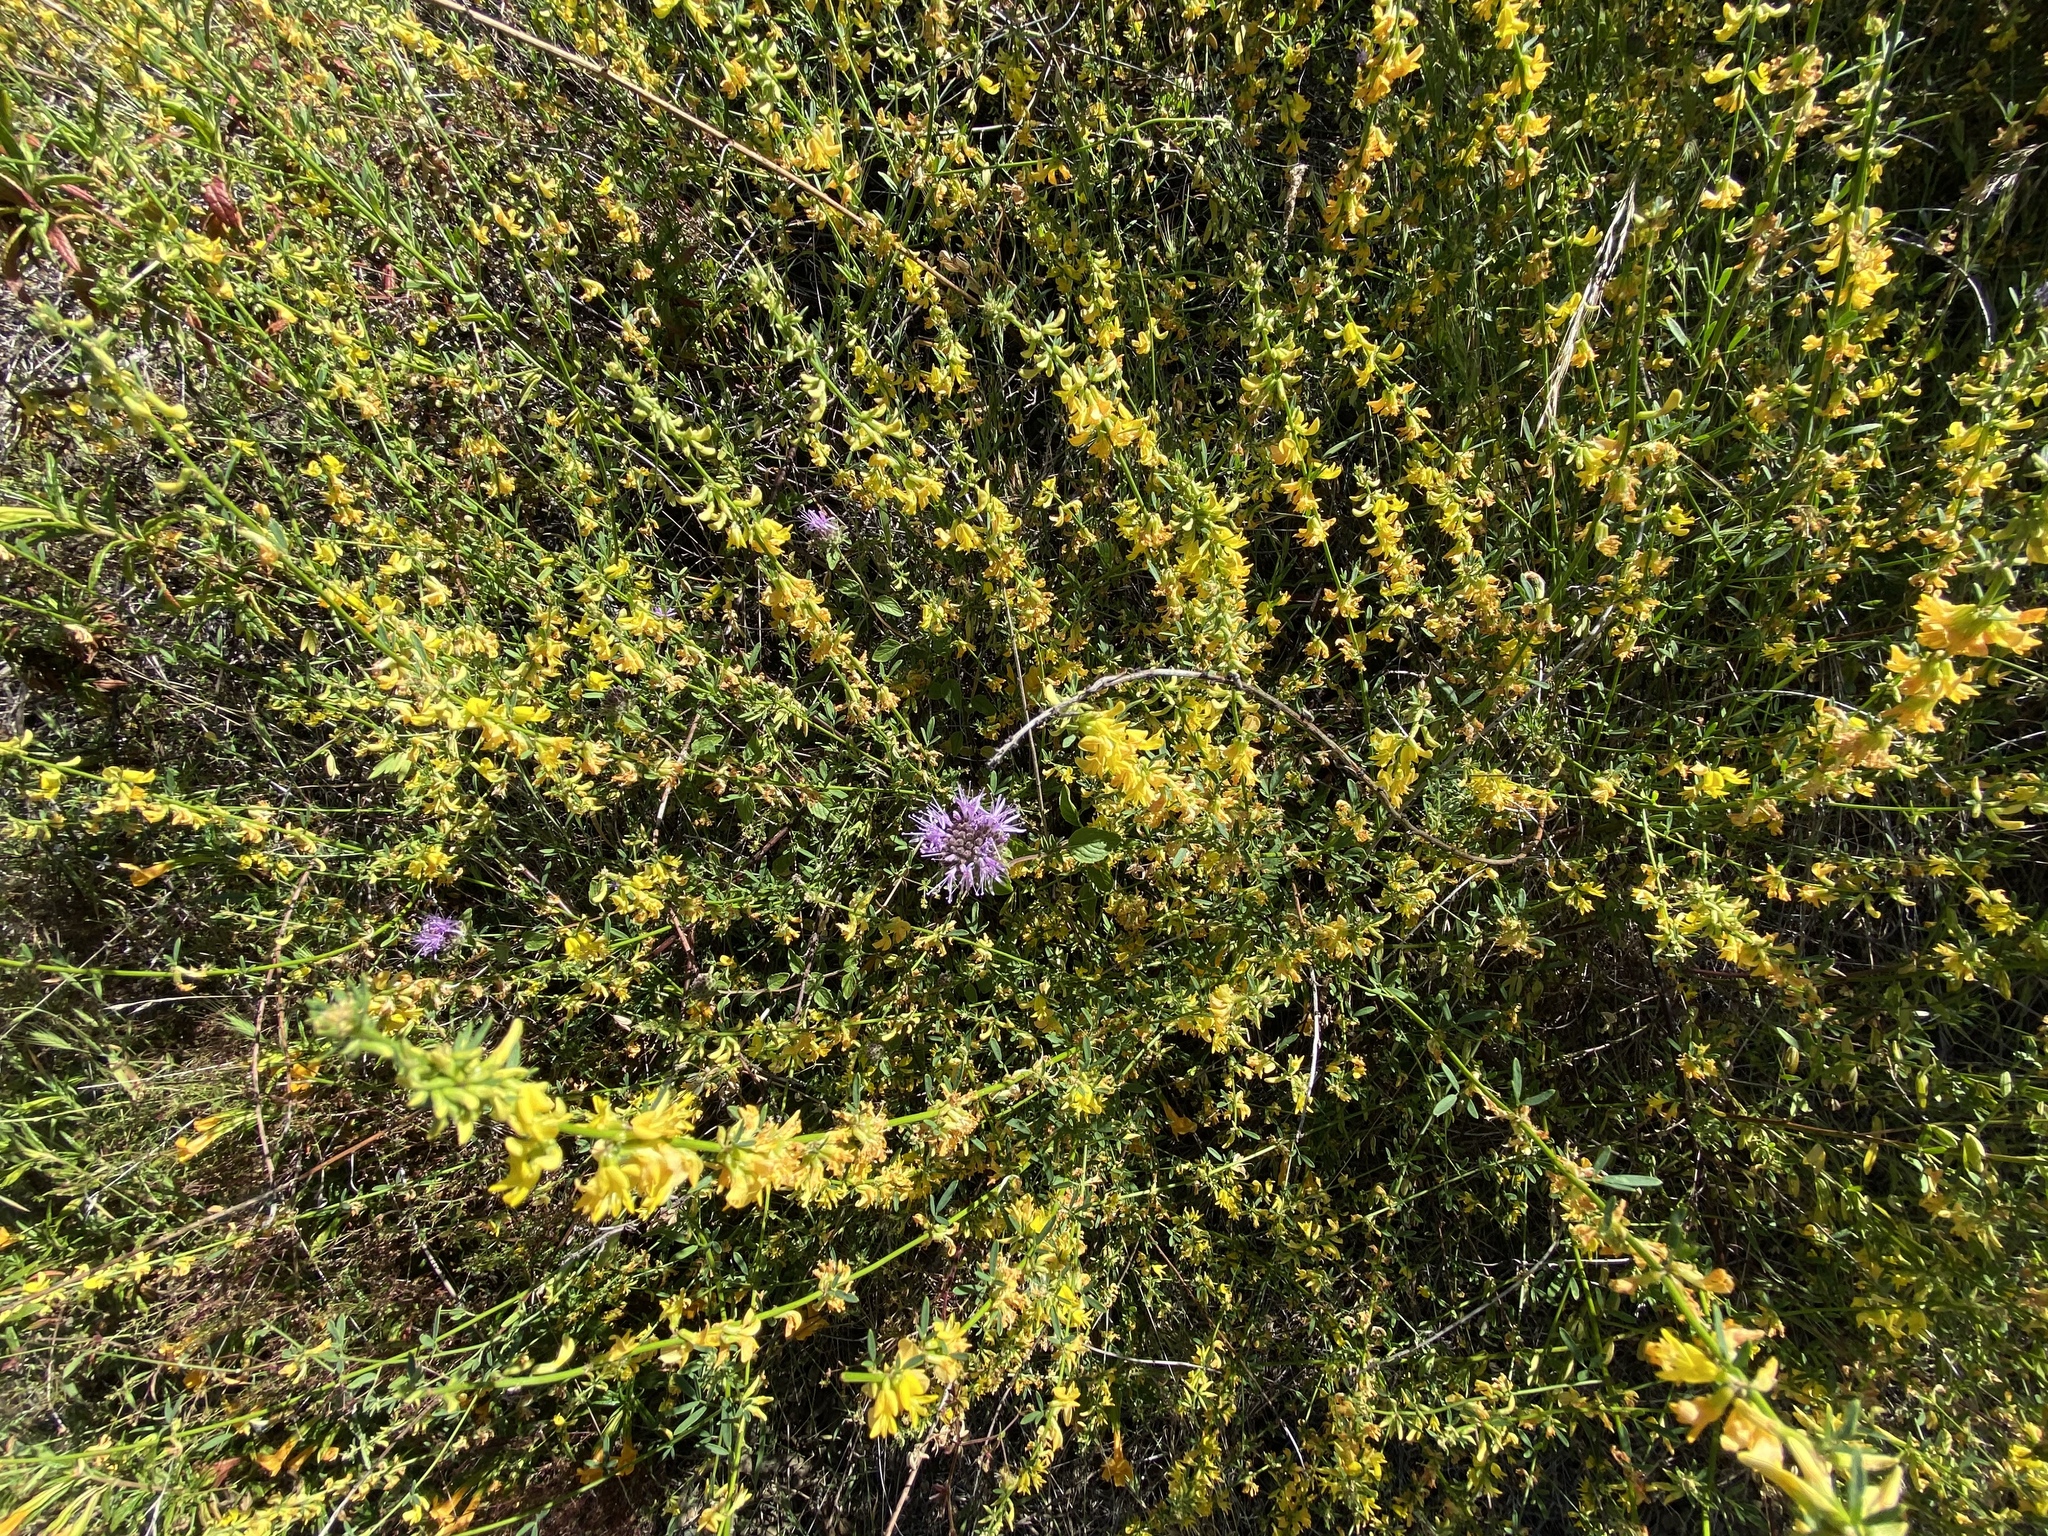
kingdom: Plantae
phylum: Tracheophyta
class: Magnoliopsida
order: Fabales
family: Fabaceae
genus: Acmispon
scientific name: Acmispon glaber
